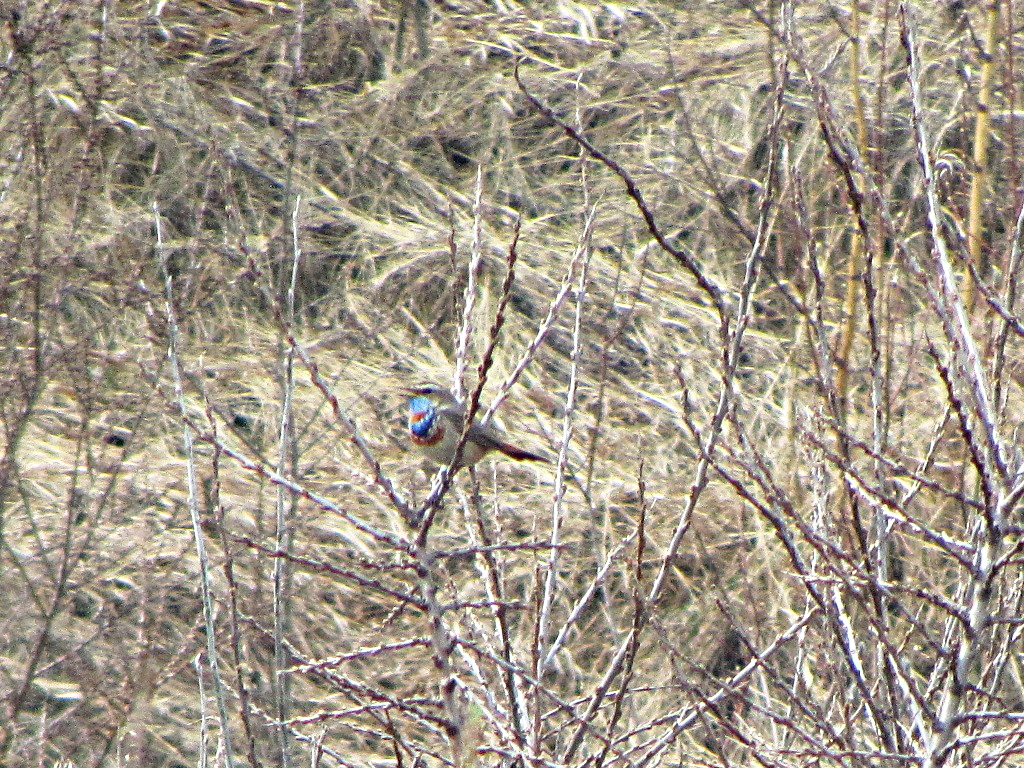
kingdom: Animalia
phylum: Chordata
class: Aves
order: Passeriformes
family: Muscicapidae
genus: Luscinia
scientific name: Luscinia svecica
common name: Bluethroat
